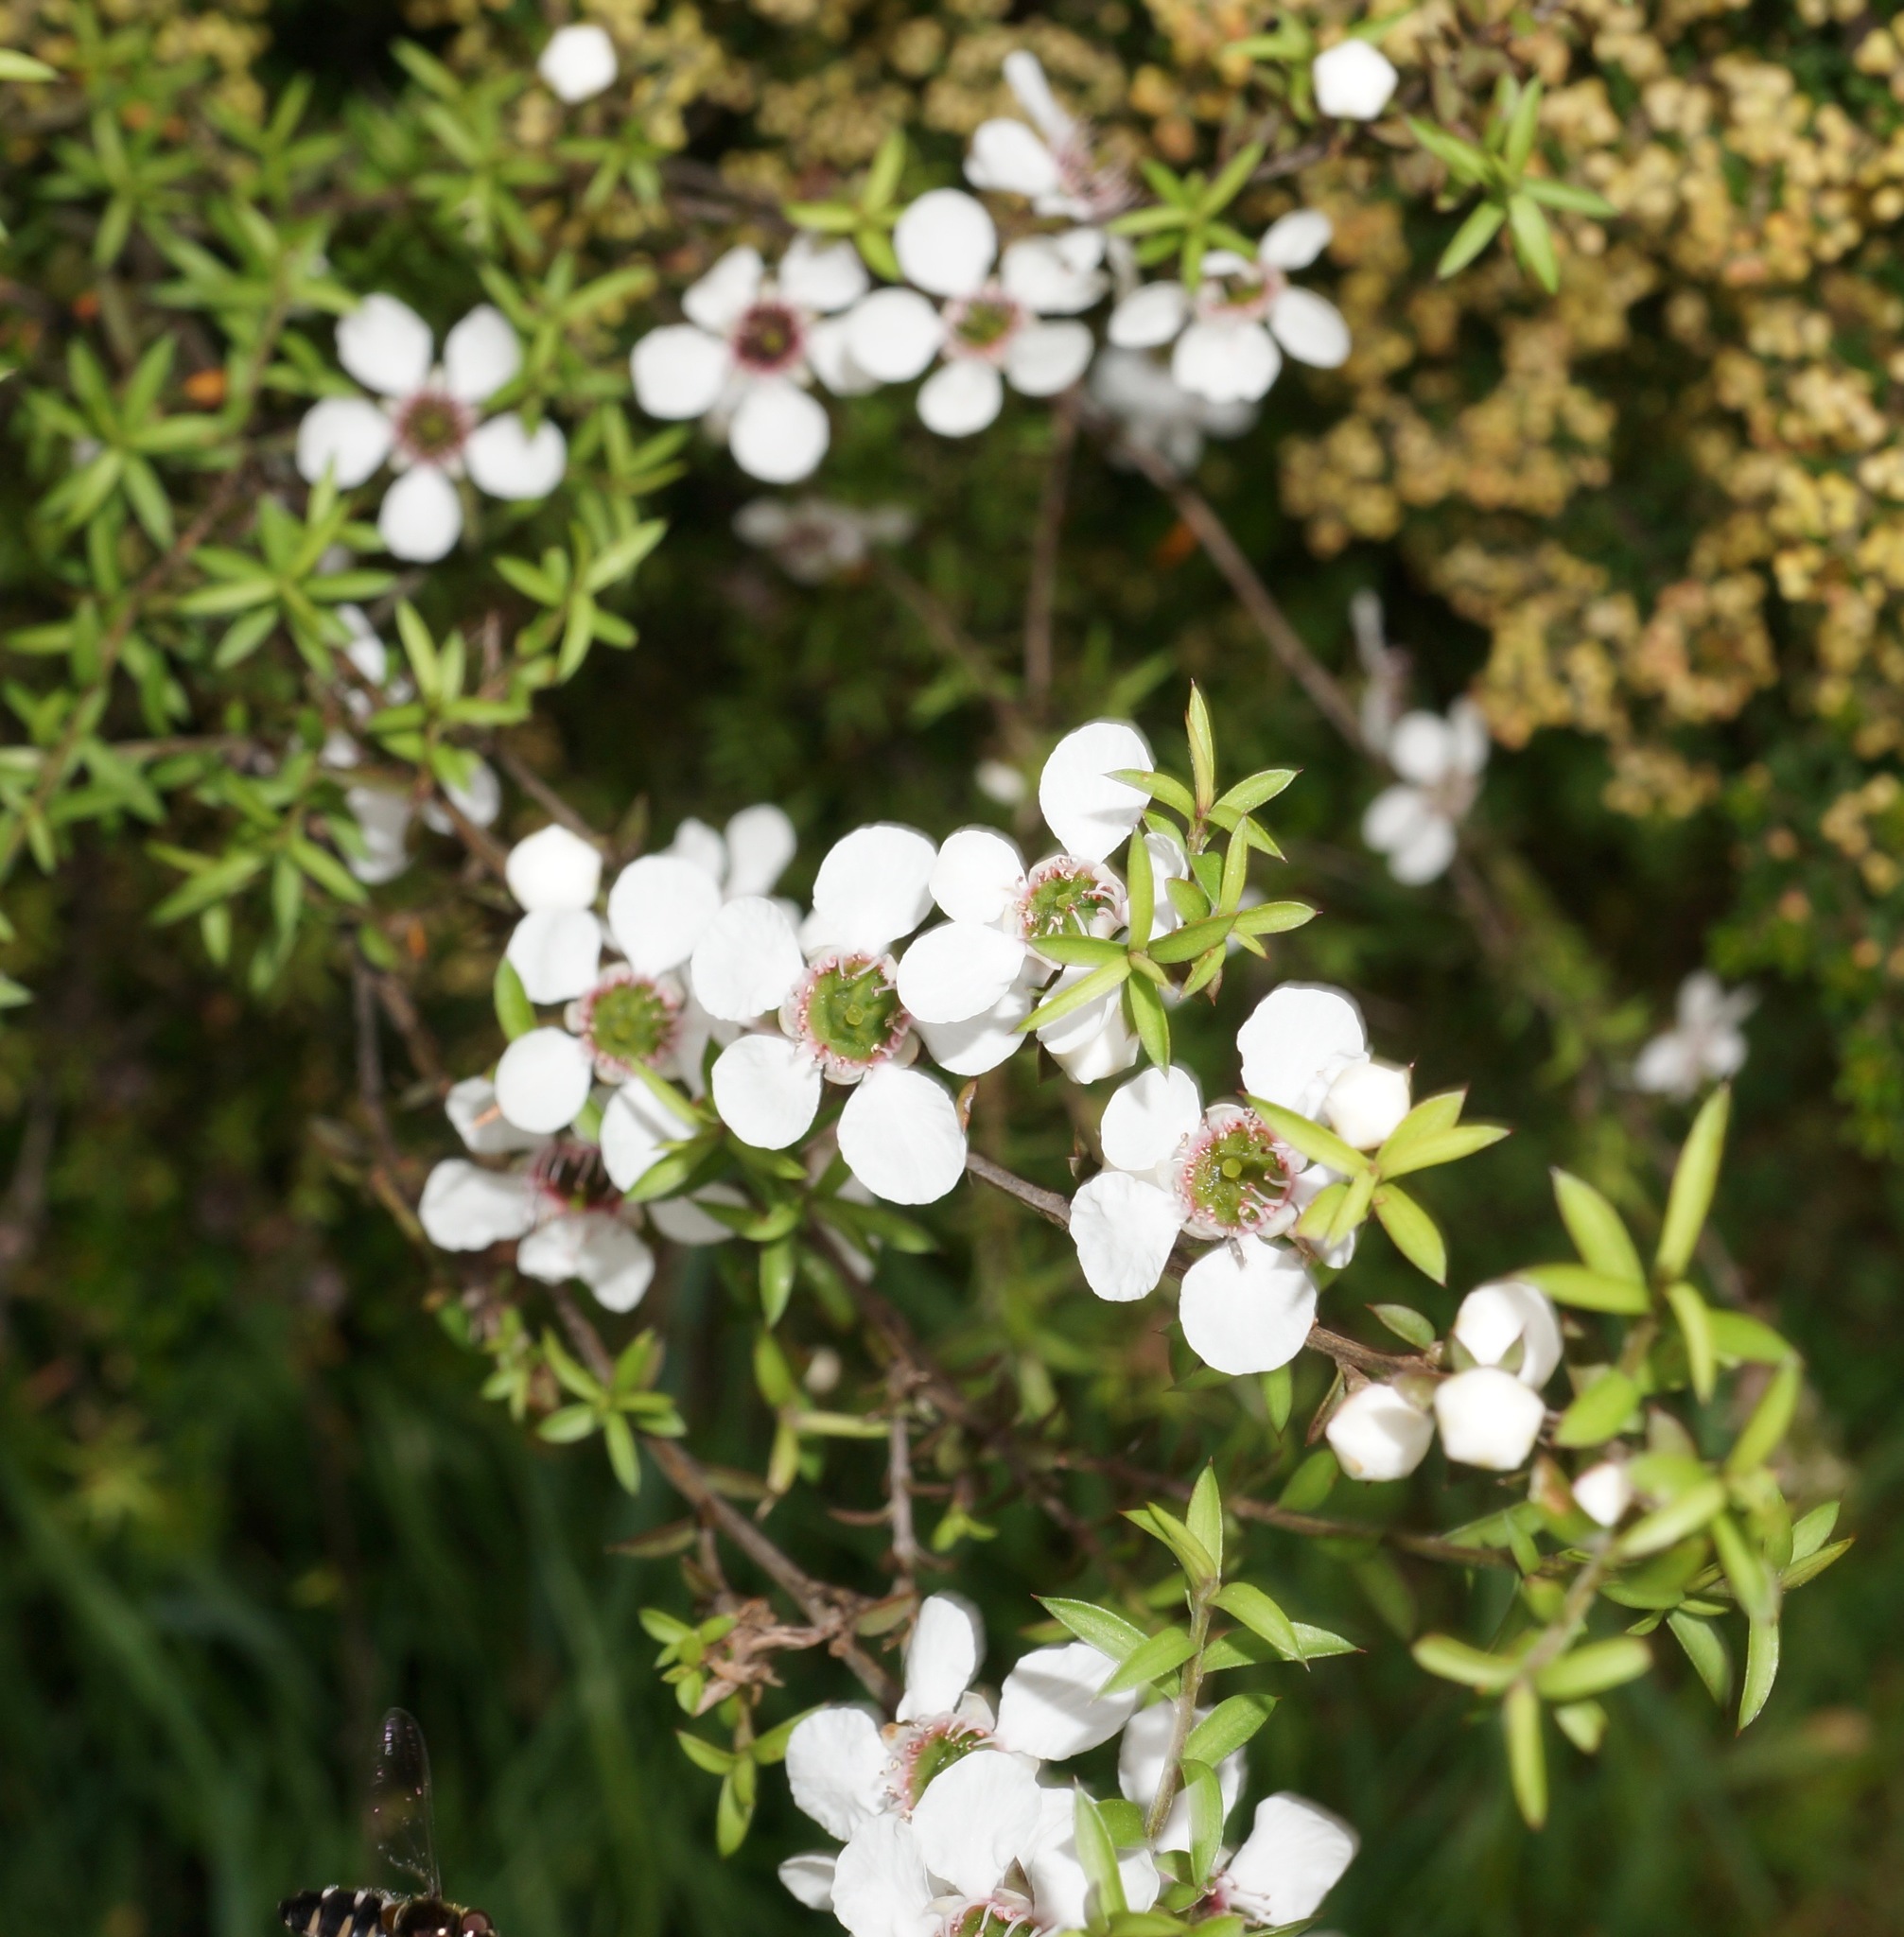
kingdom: Plantae
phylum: Tracheophyta
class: Magnoliopsida
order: Myrtales
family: Myrtaceae
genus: Leptospermum
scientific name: Leptospermum scoparium
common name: Broom tea-tree
